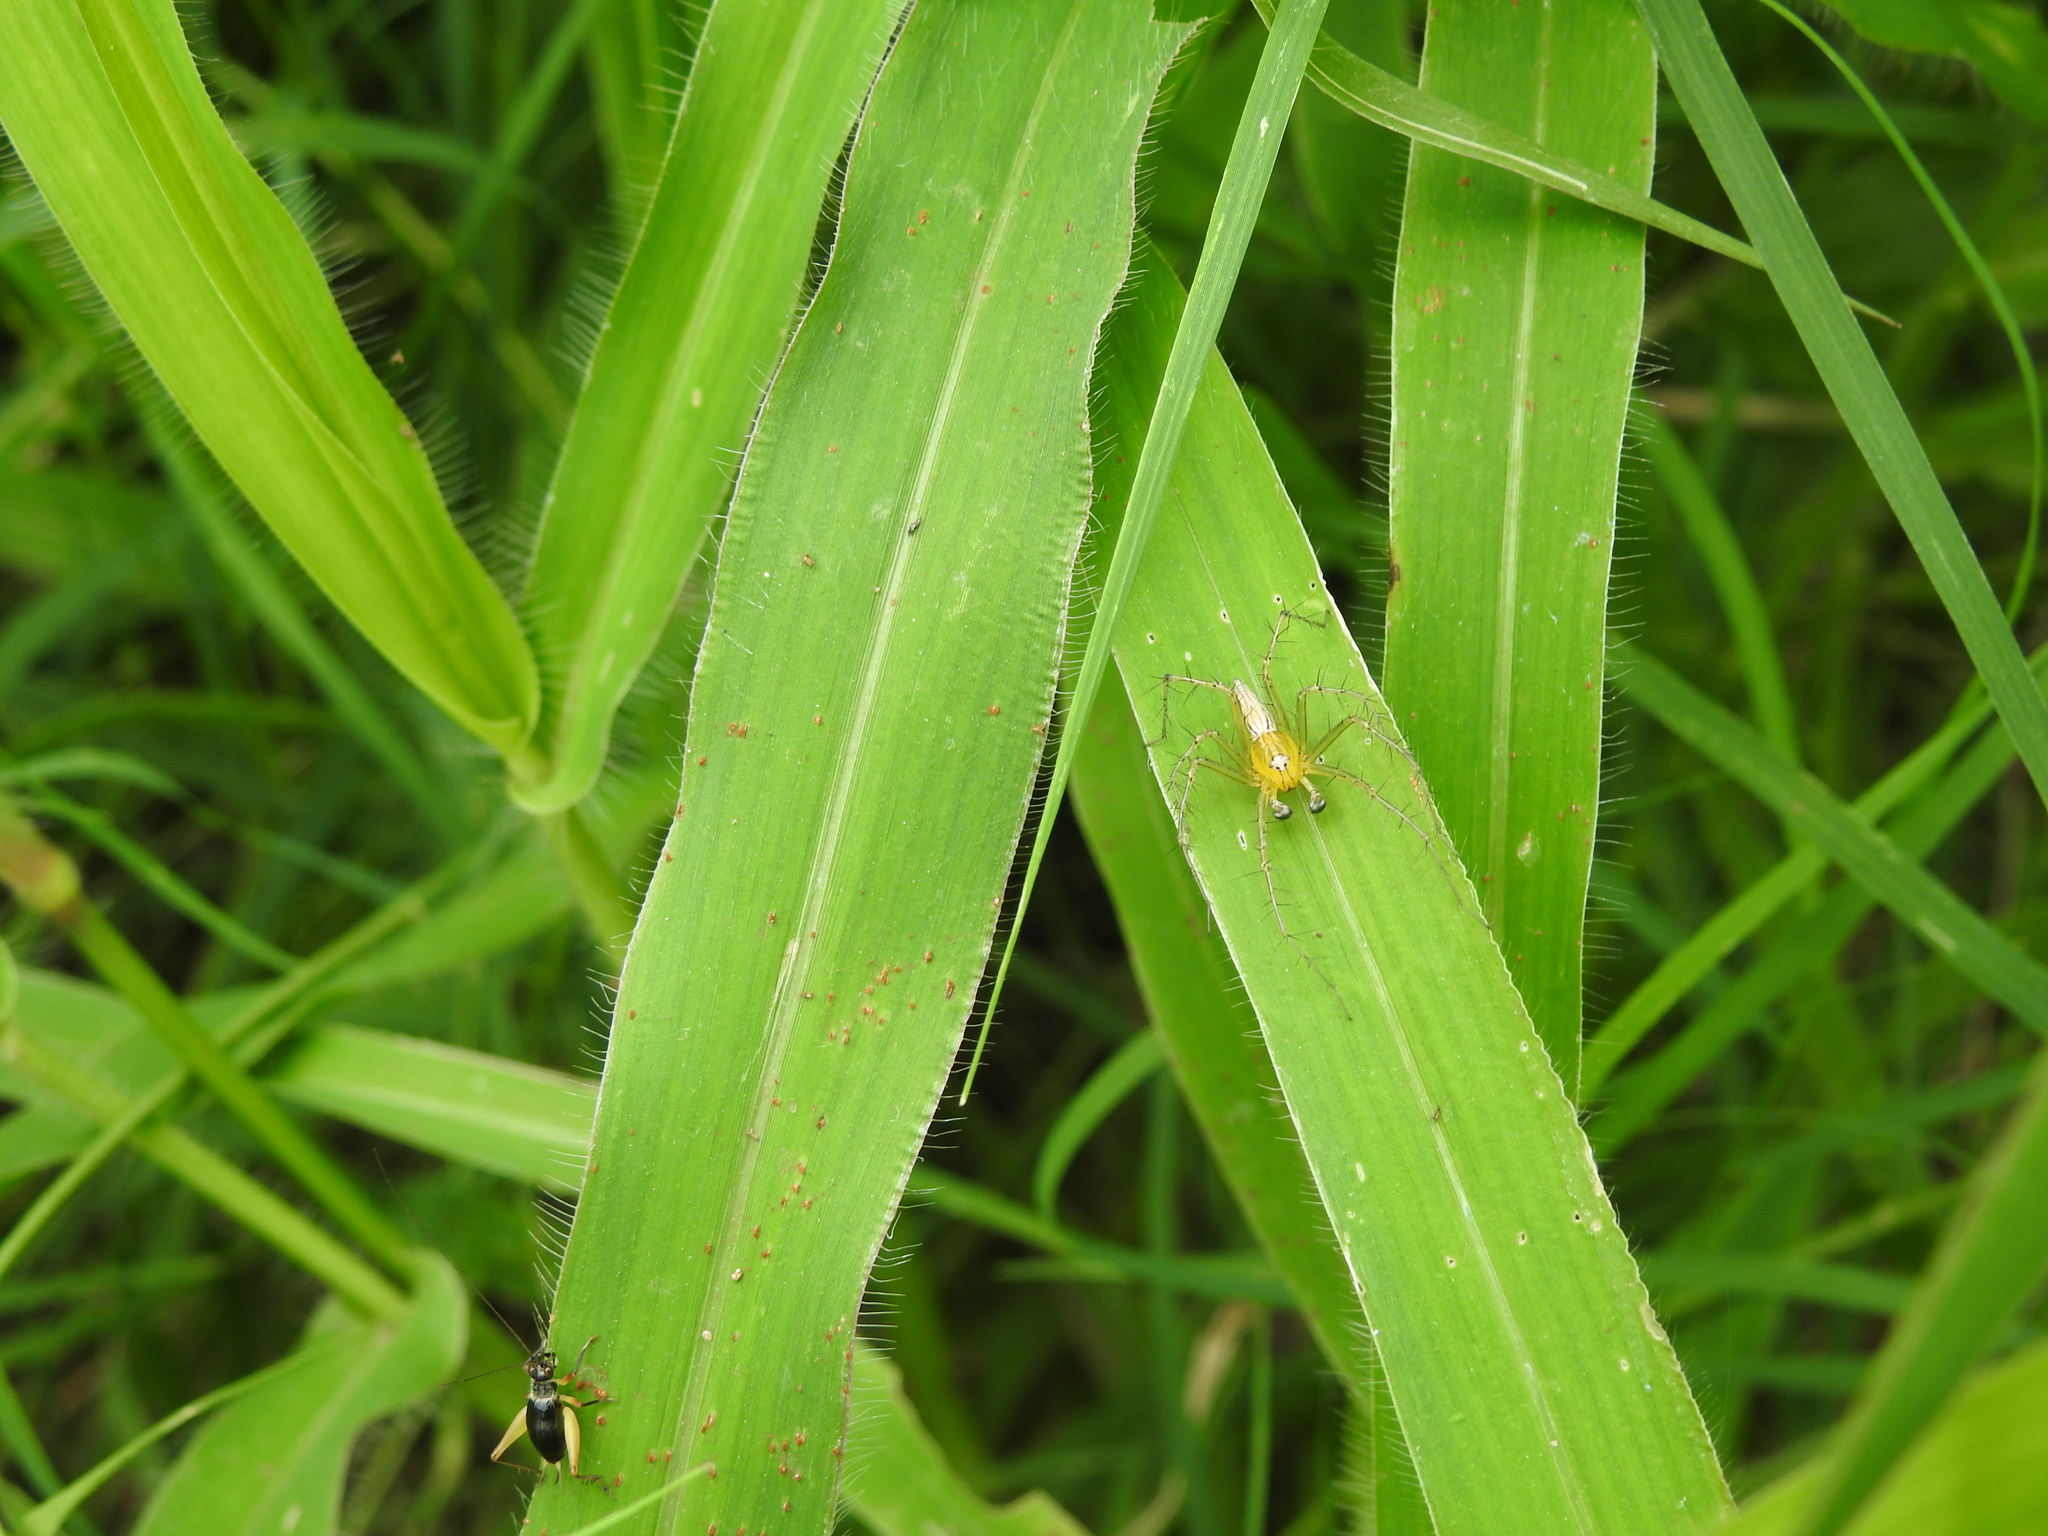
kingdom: Animalia
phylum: Arthropoda
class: Arachnida
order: Araneae
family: Oxyopidae
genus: Oxyopes
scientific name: Oxyopes sertatus
